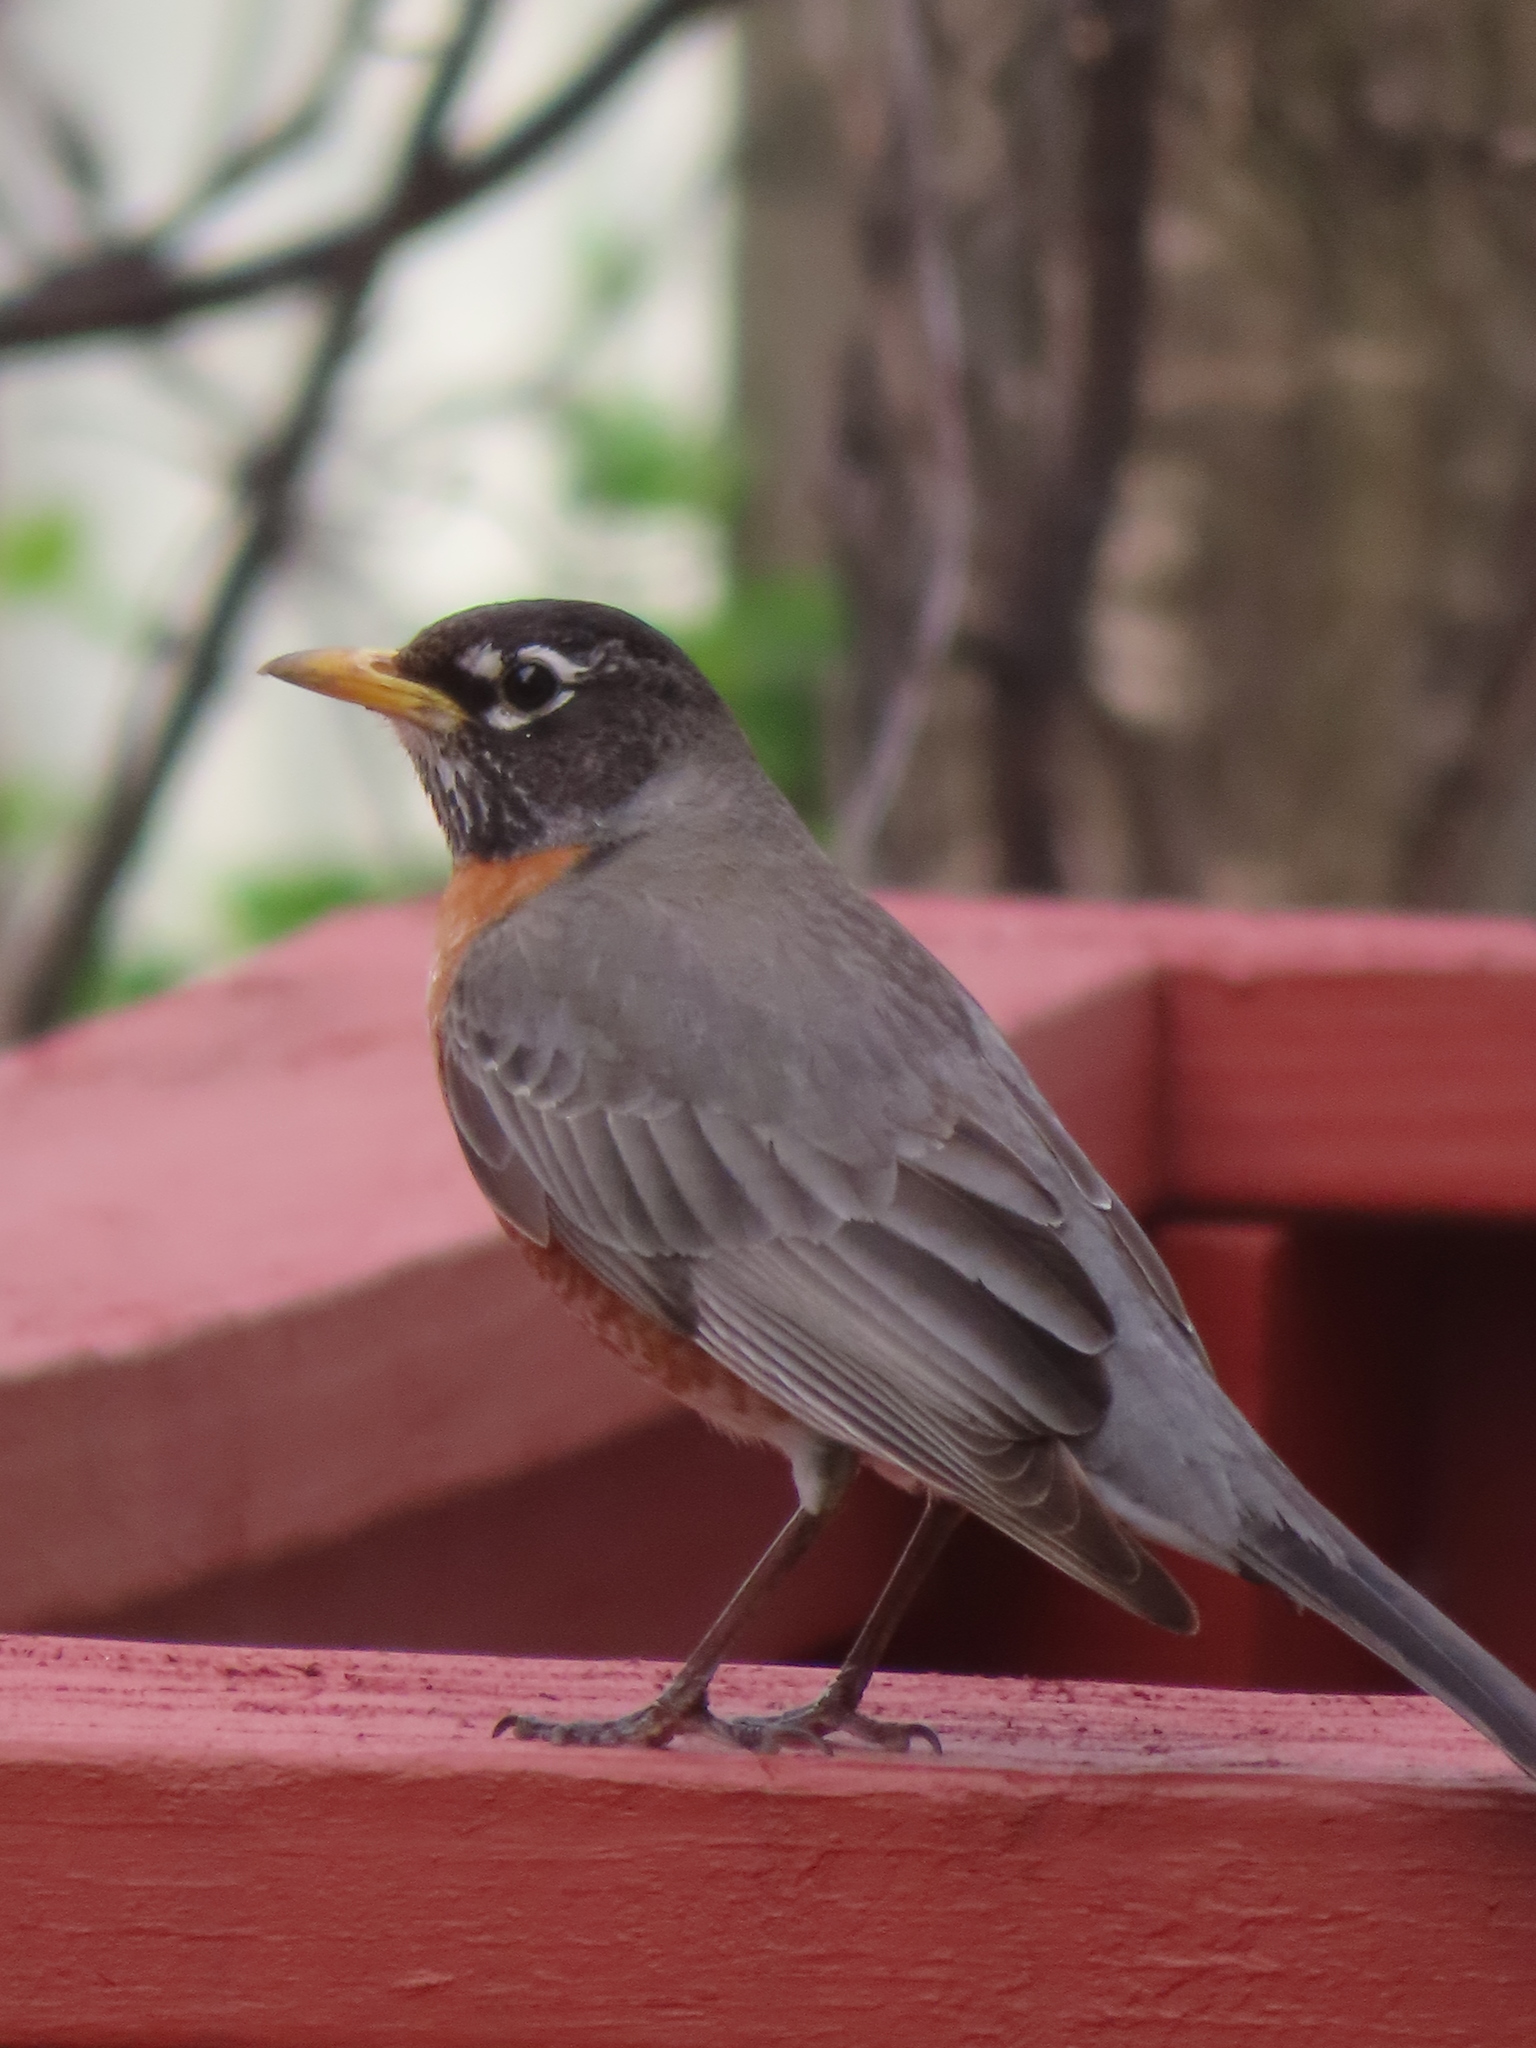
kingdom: Animalia
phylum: Chordata
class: Aves
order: Passeriformes
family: Turdidae
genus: Turdus
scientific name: Turdus migratorius
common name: American robin
